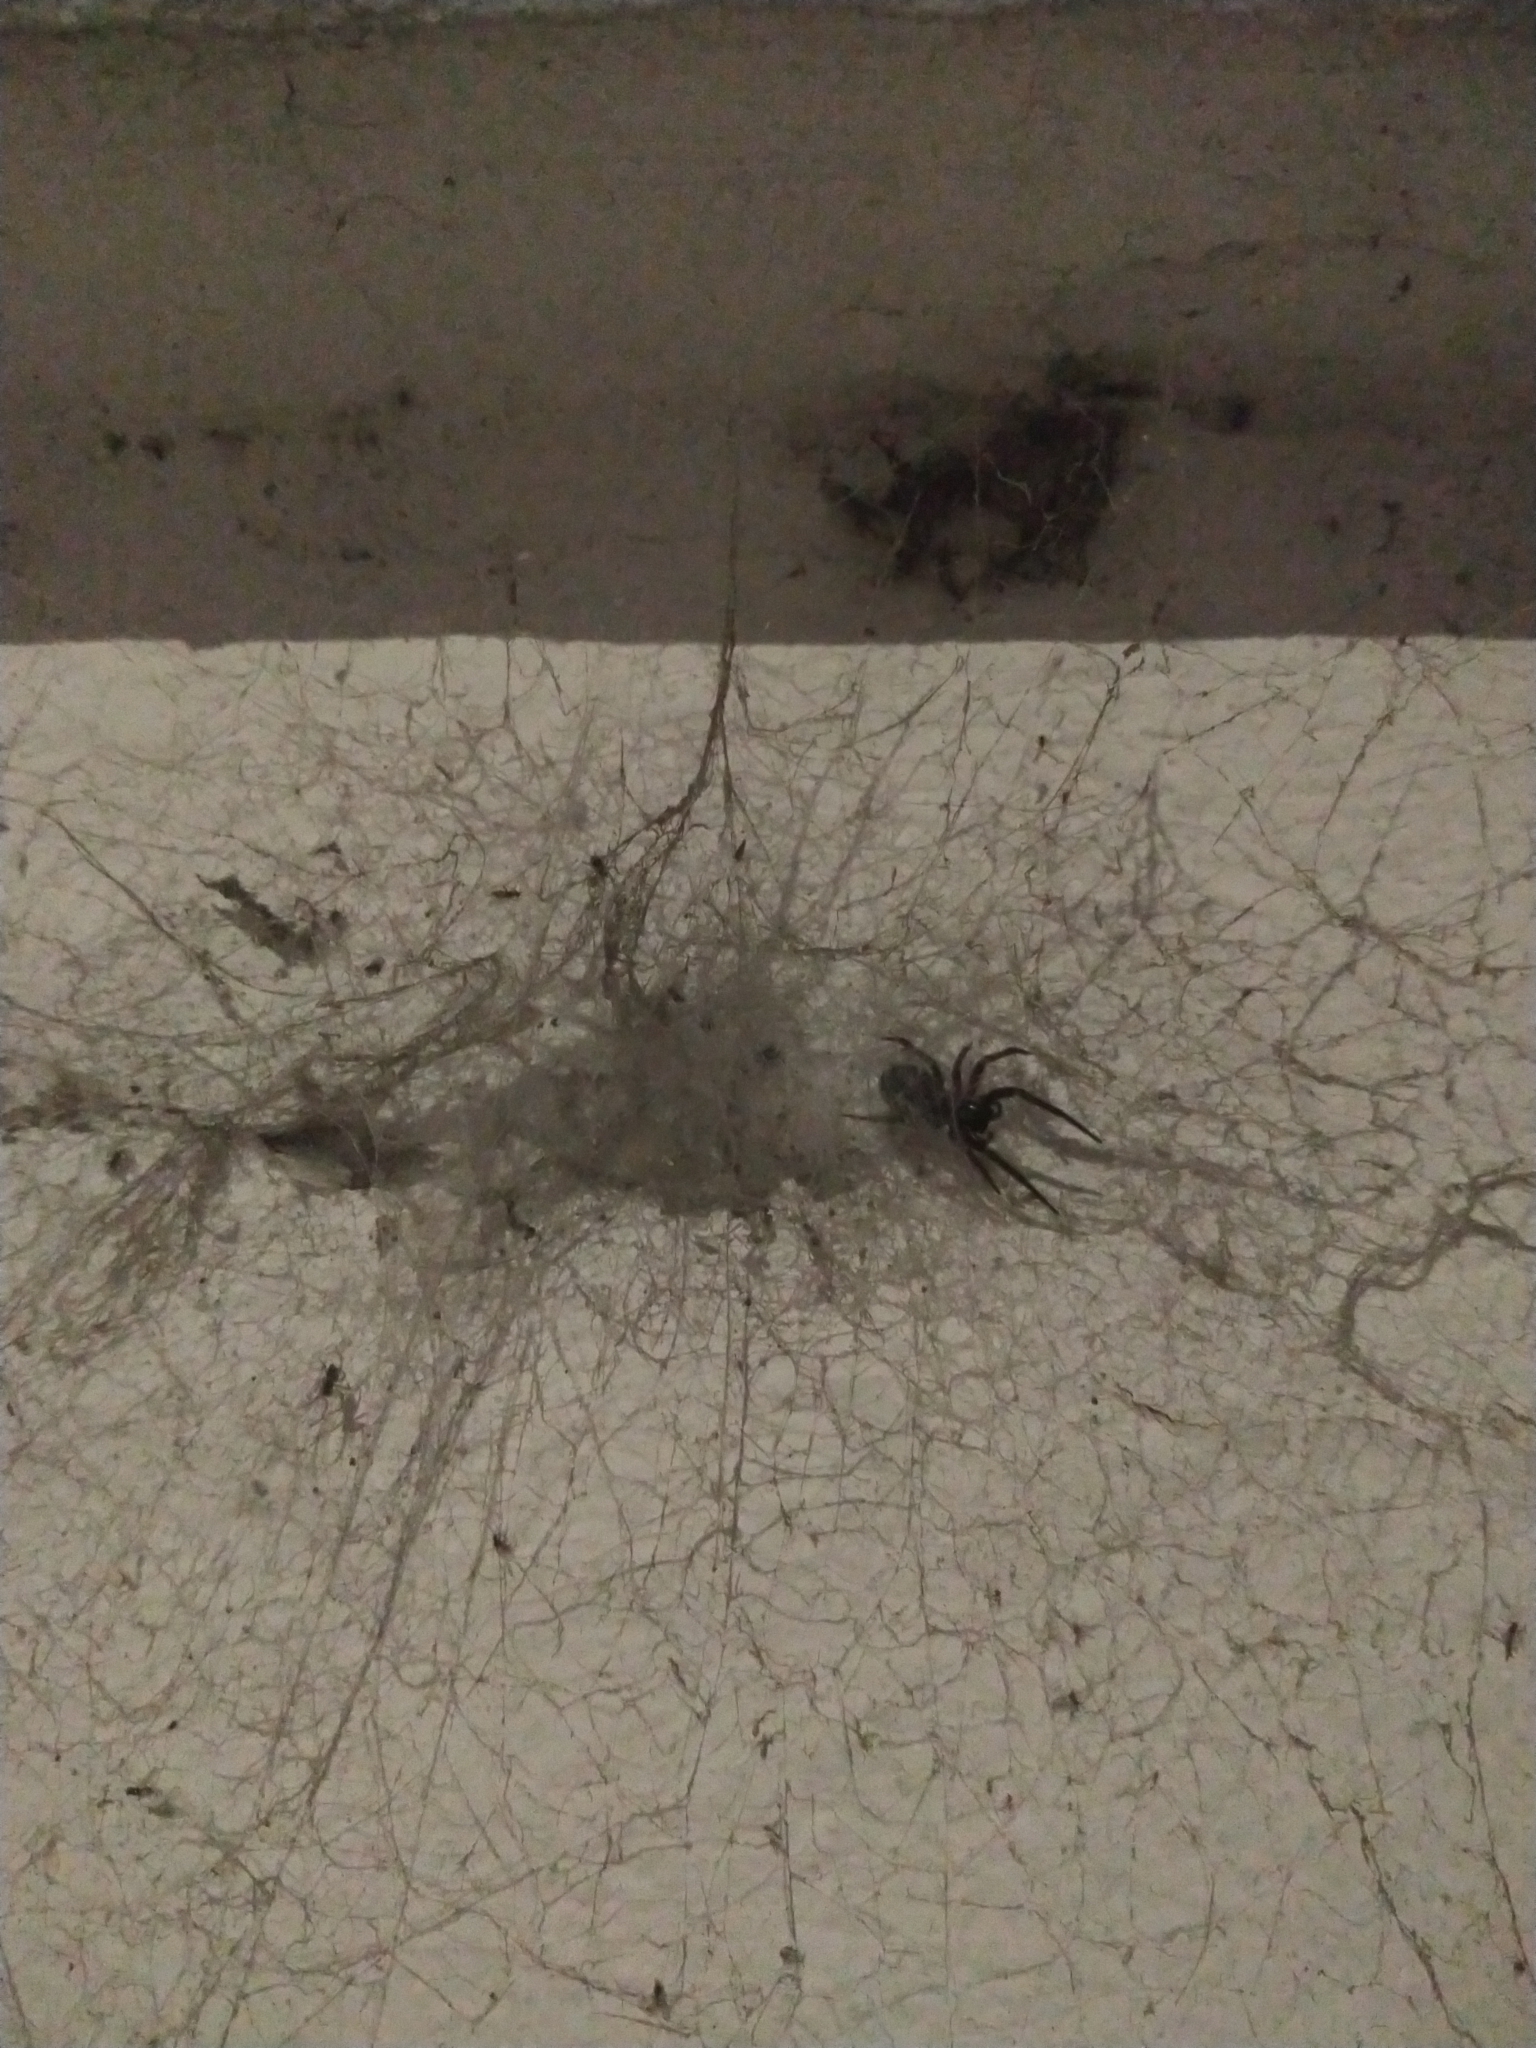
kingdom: Animalia
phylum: Arthropoda
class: Arachnida
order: Araneae
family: Desidae
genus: Badumna
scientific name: Badumna longinqua
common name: Gray house spider
